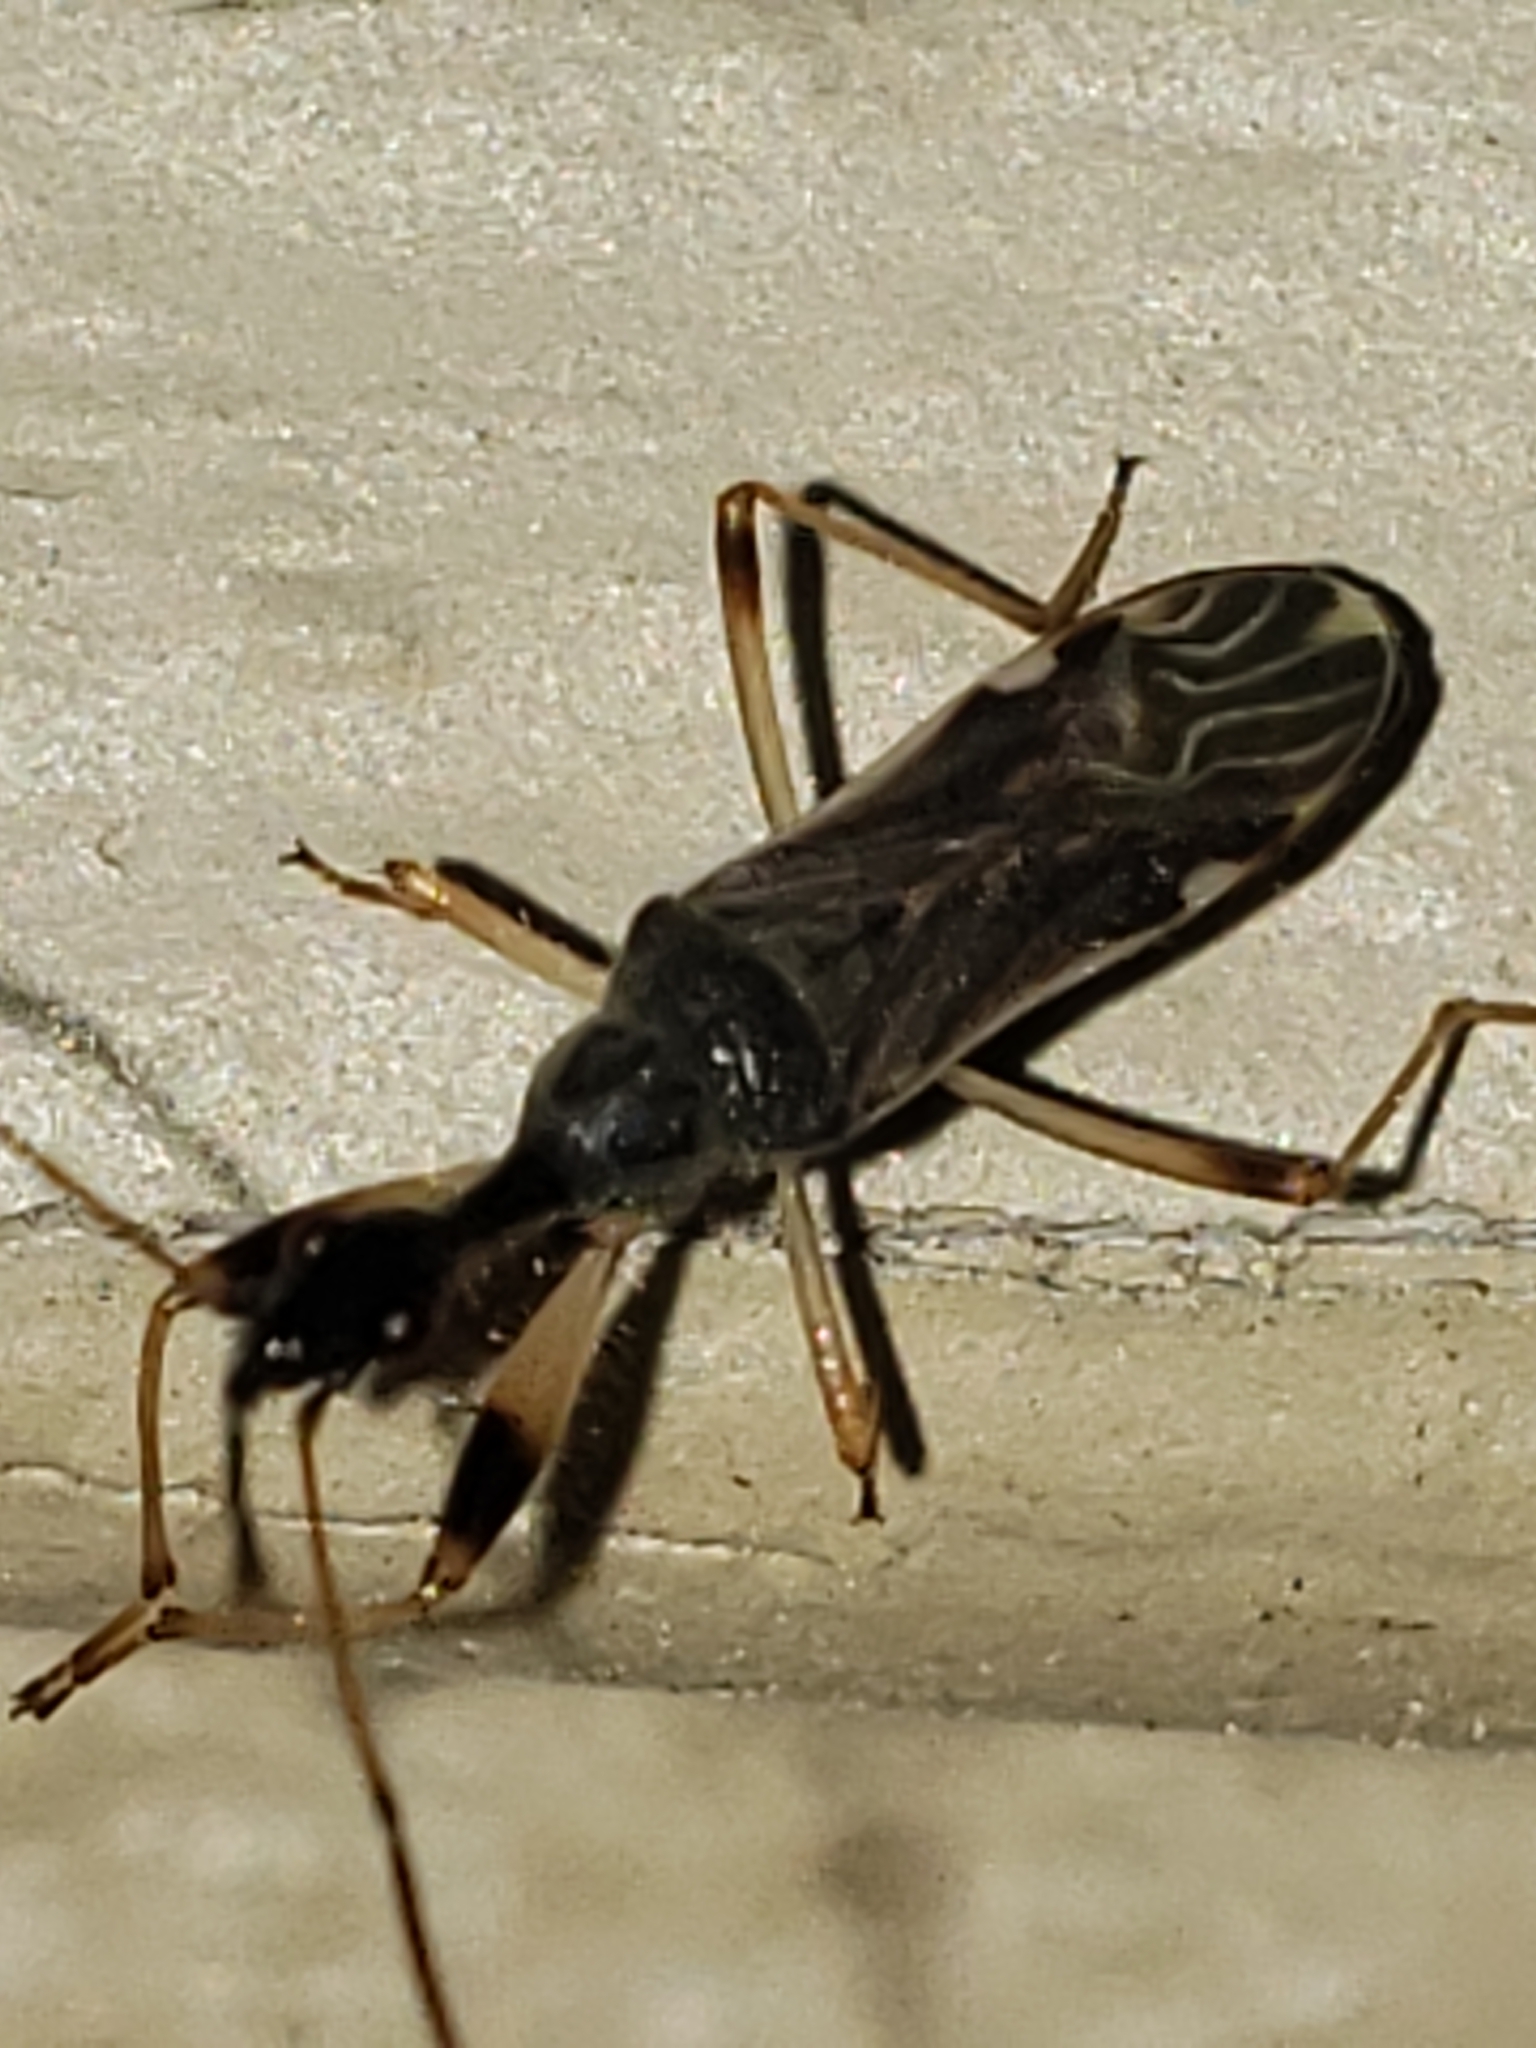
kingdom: Animalia
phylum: Arthropoda
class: Insecta
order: Hemiptera
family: Rhyparochromidae
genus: Myodocha
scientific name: Myodocha serripes
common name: Long-necked seed bug
